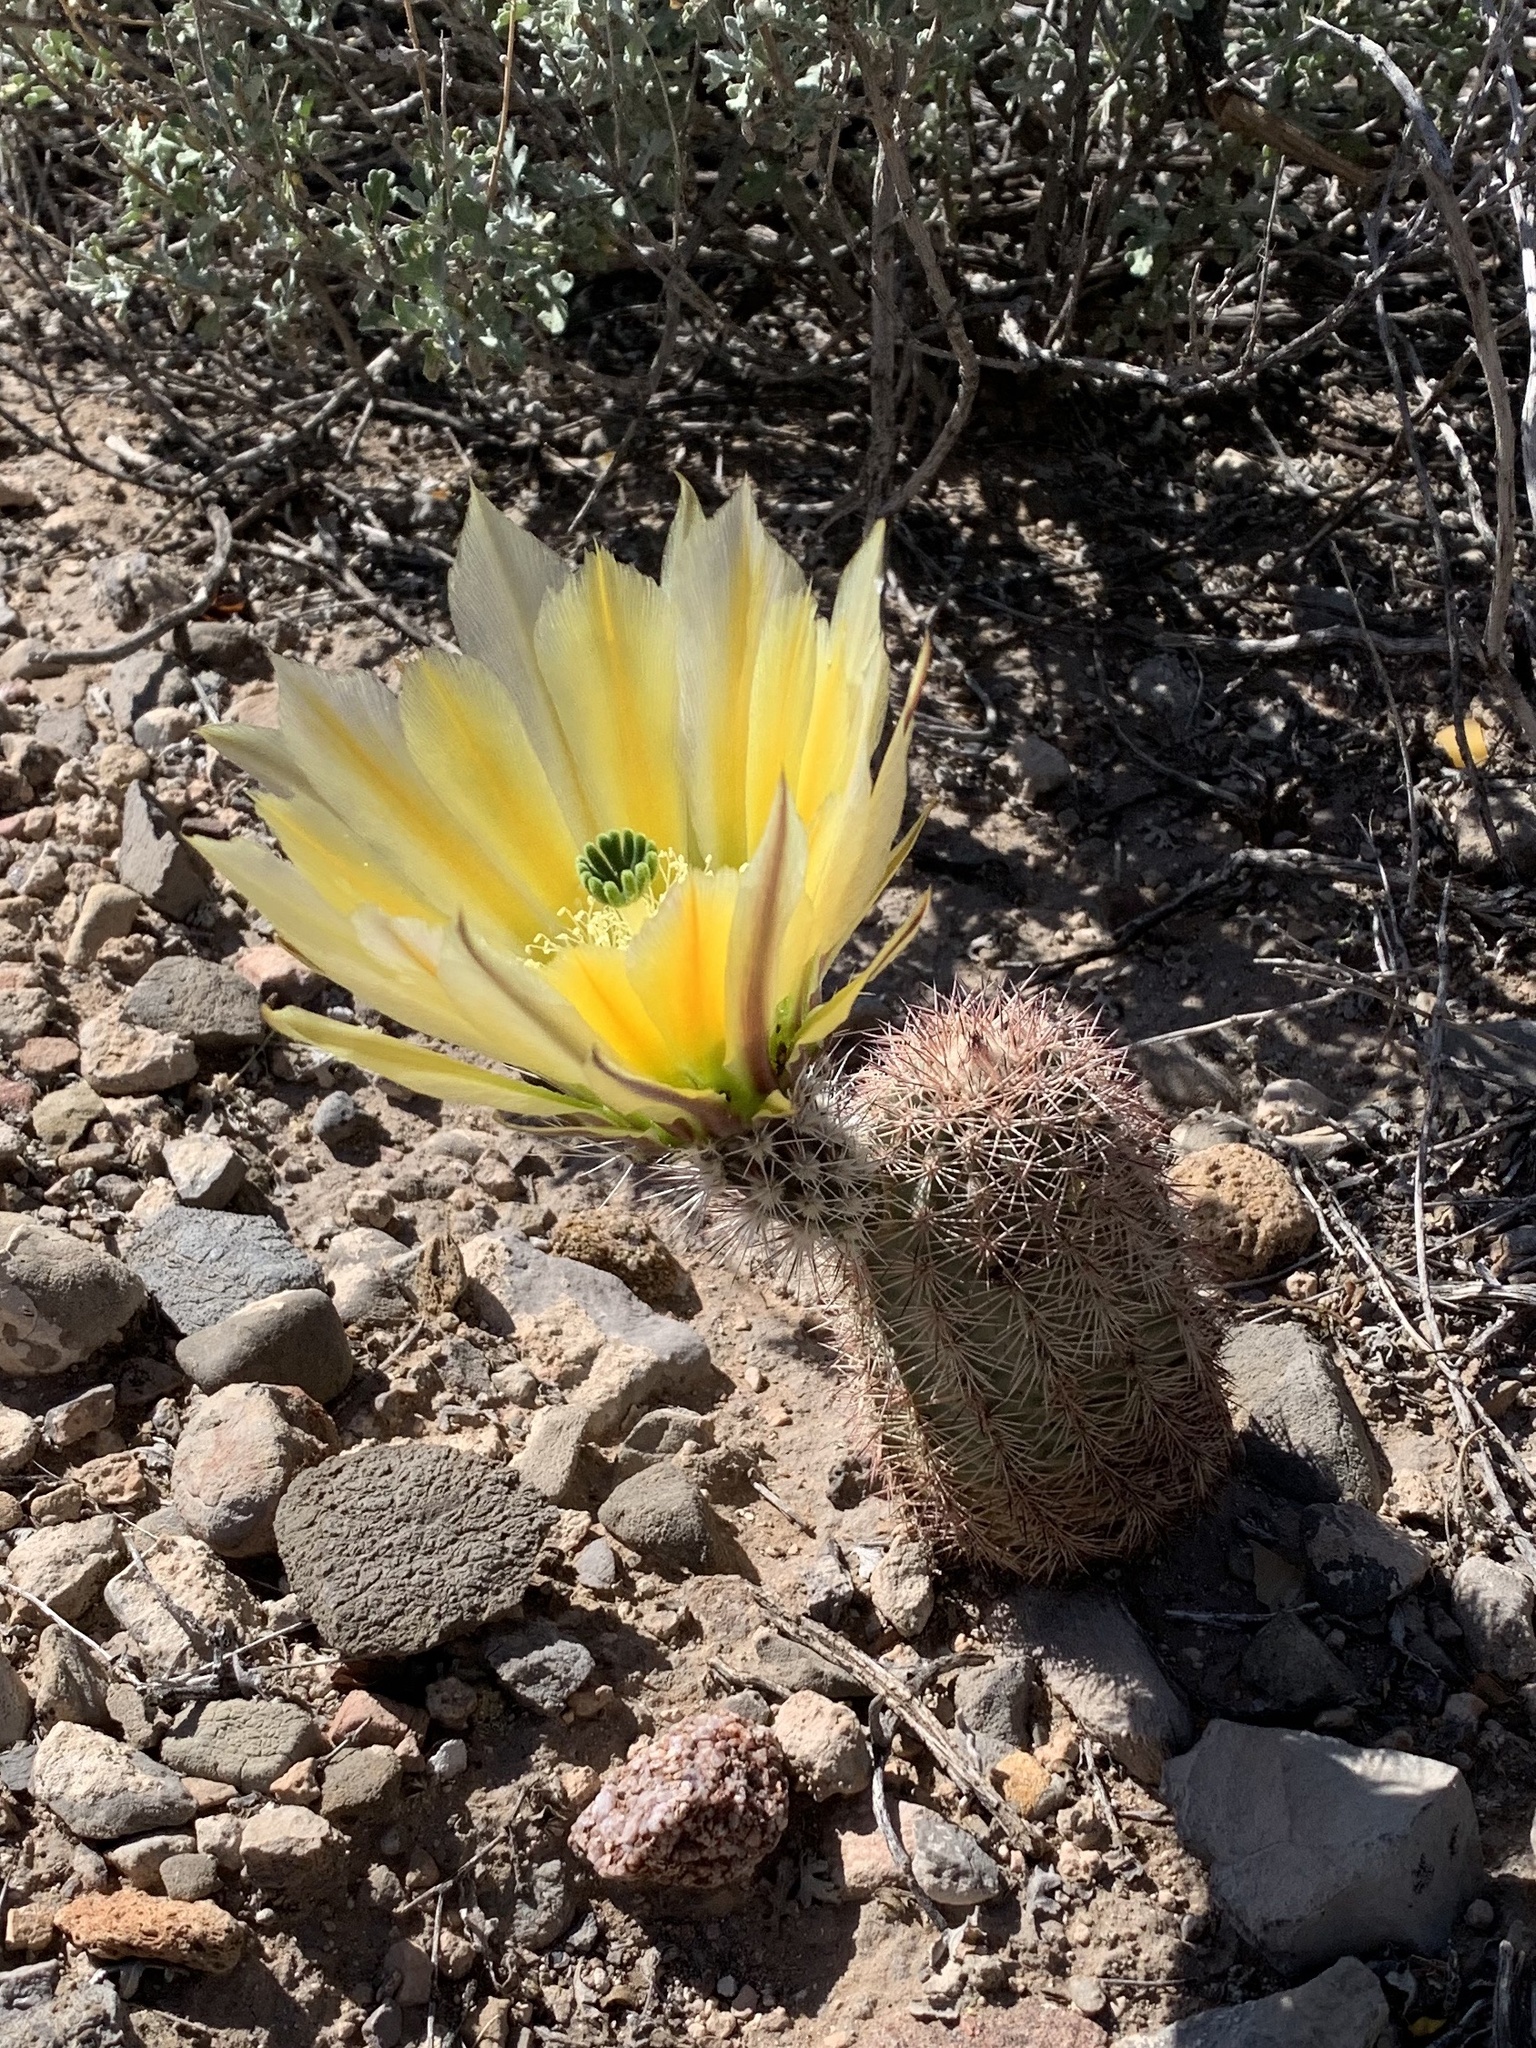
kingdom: Plantae
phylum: Tracheophyta
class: Magnoliopsida
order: Caryophyllales
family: Cactaceae
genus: Echinocereus
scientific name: Echinocereus dasyacanthus
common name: Spiny hedgehog cactus
